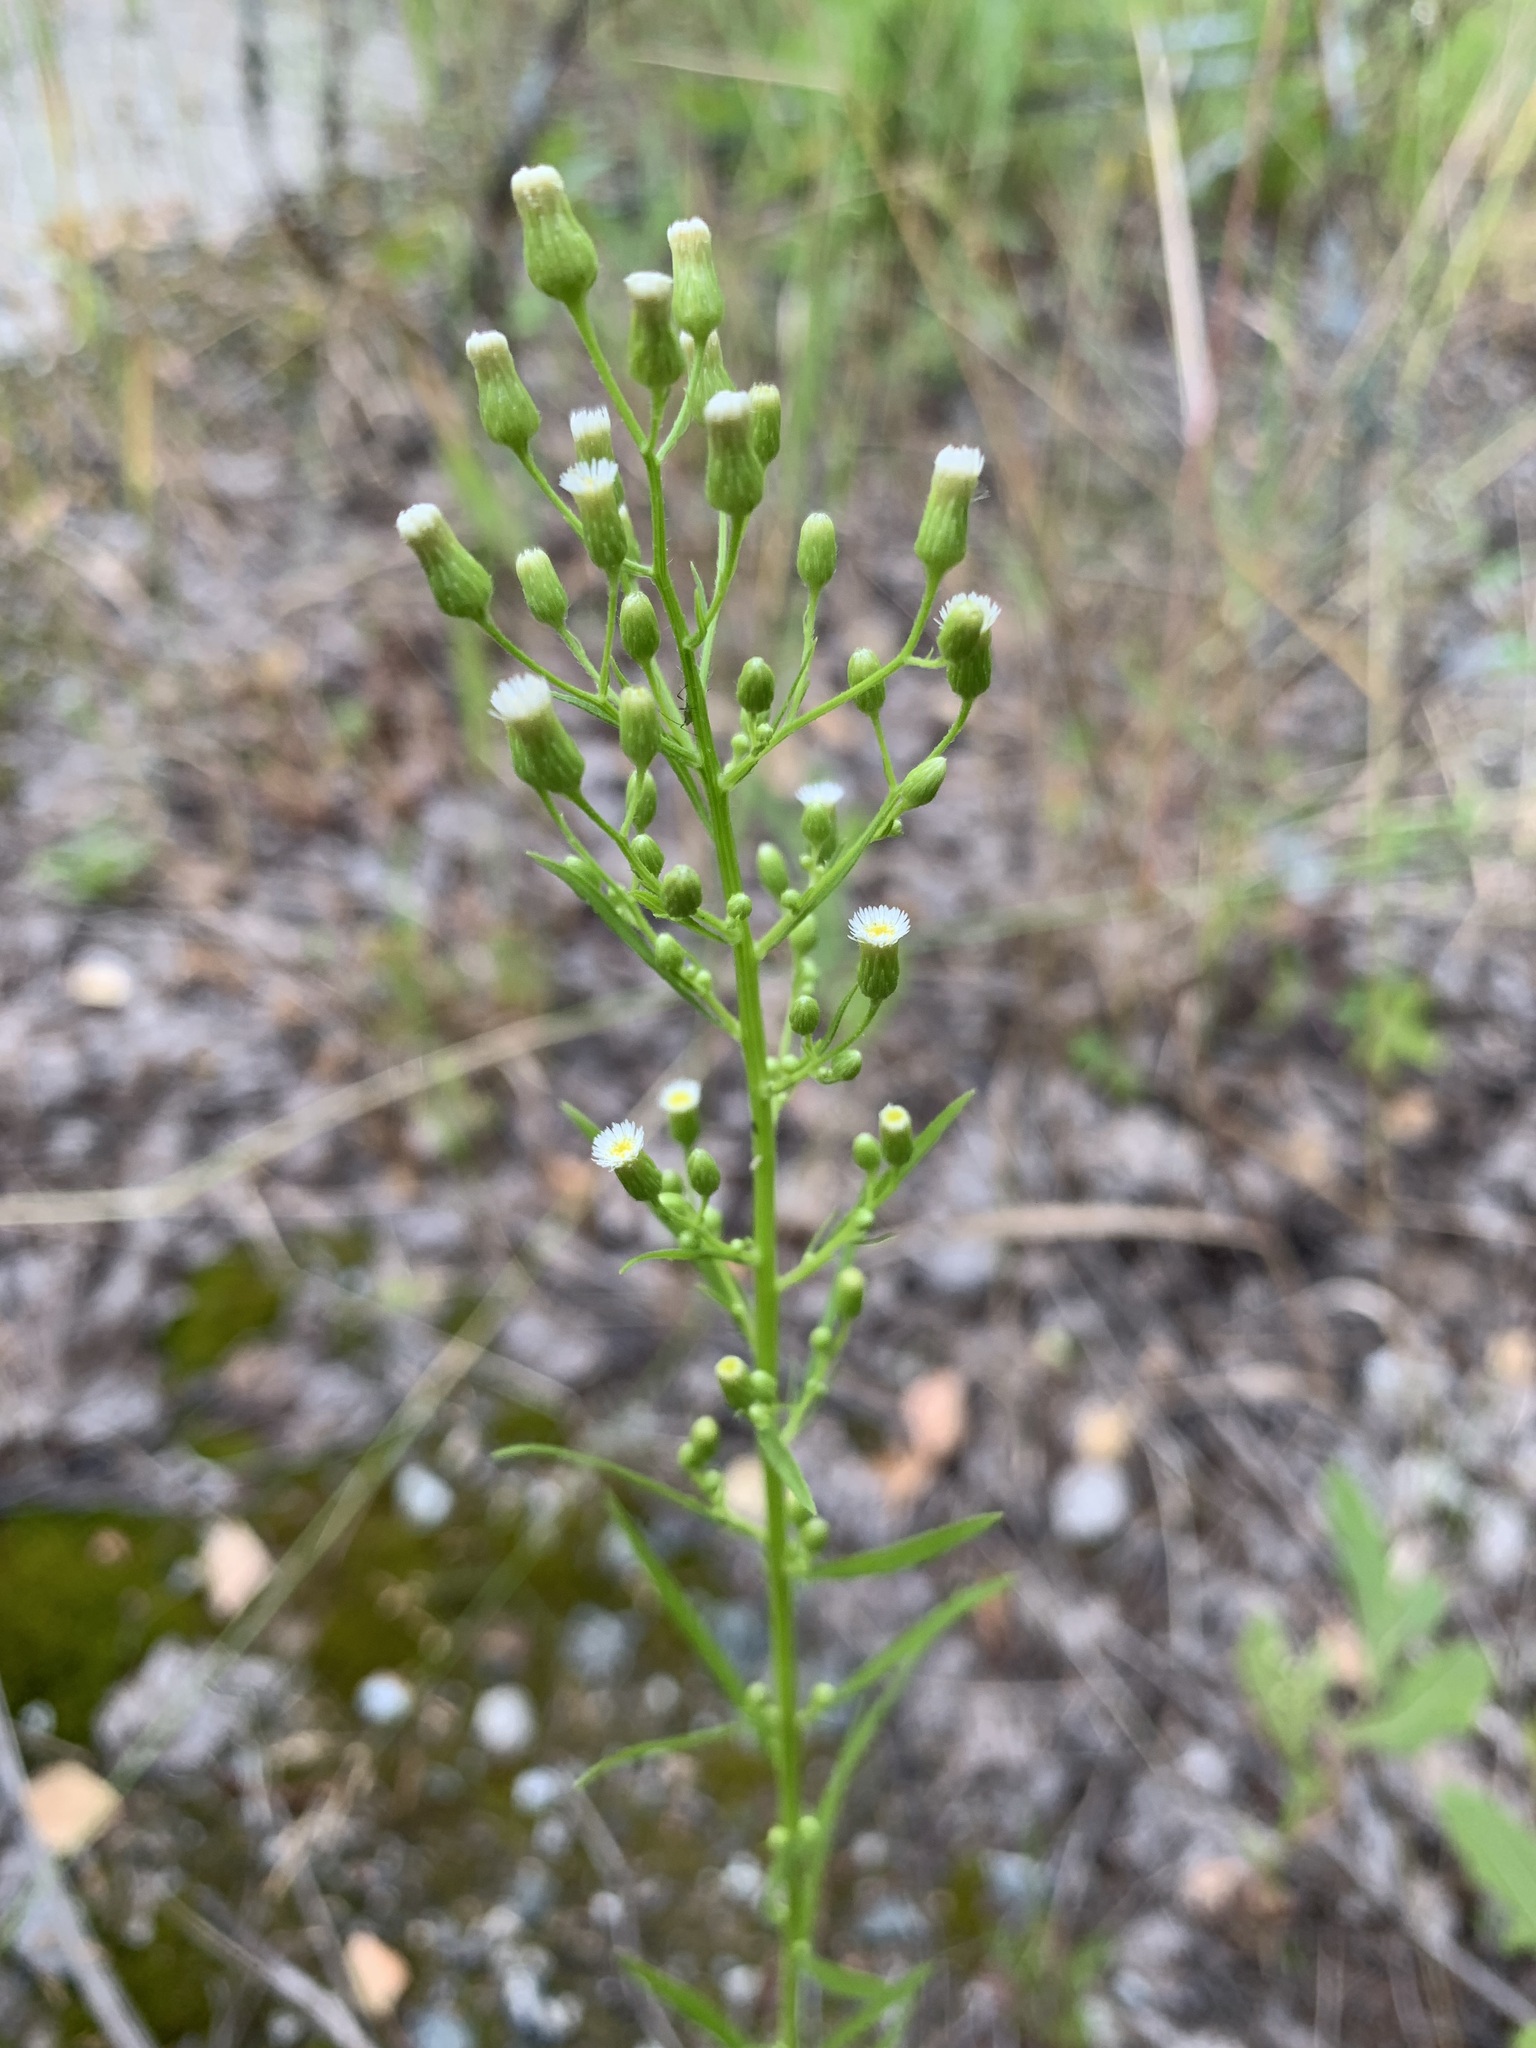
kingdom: Plantae
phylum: Tracheophyta
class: Magnoliopsida
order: Asterales
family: Asteraceae
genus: Erigeron
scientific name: Erigeron canadensis
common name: Canadian fleabane
